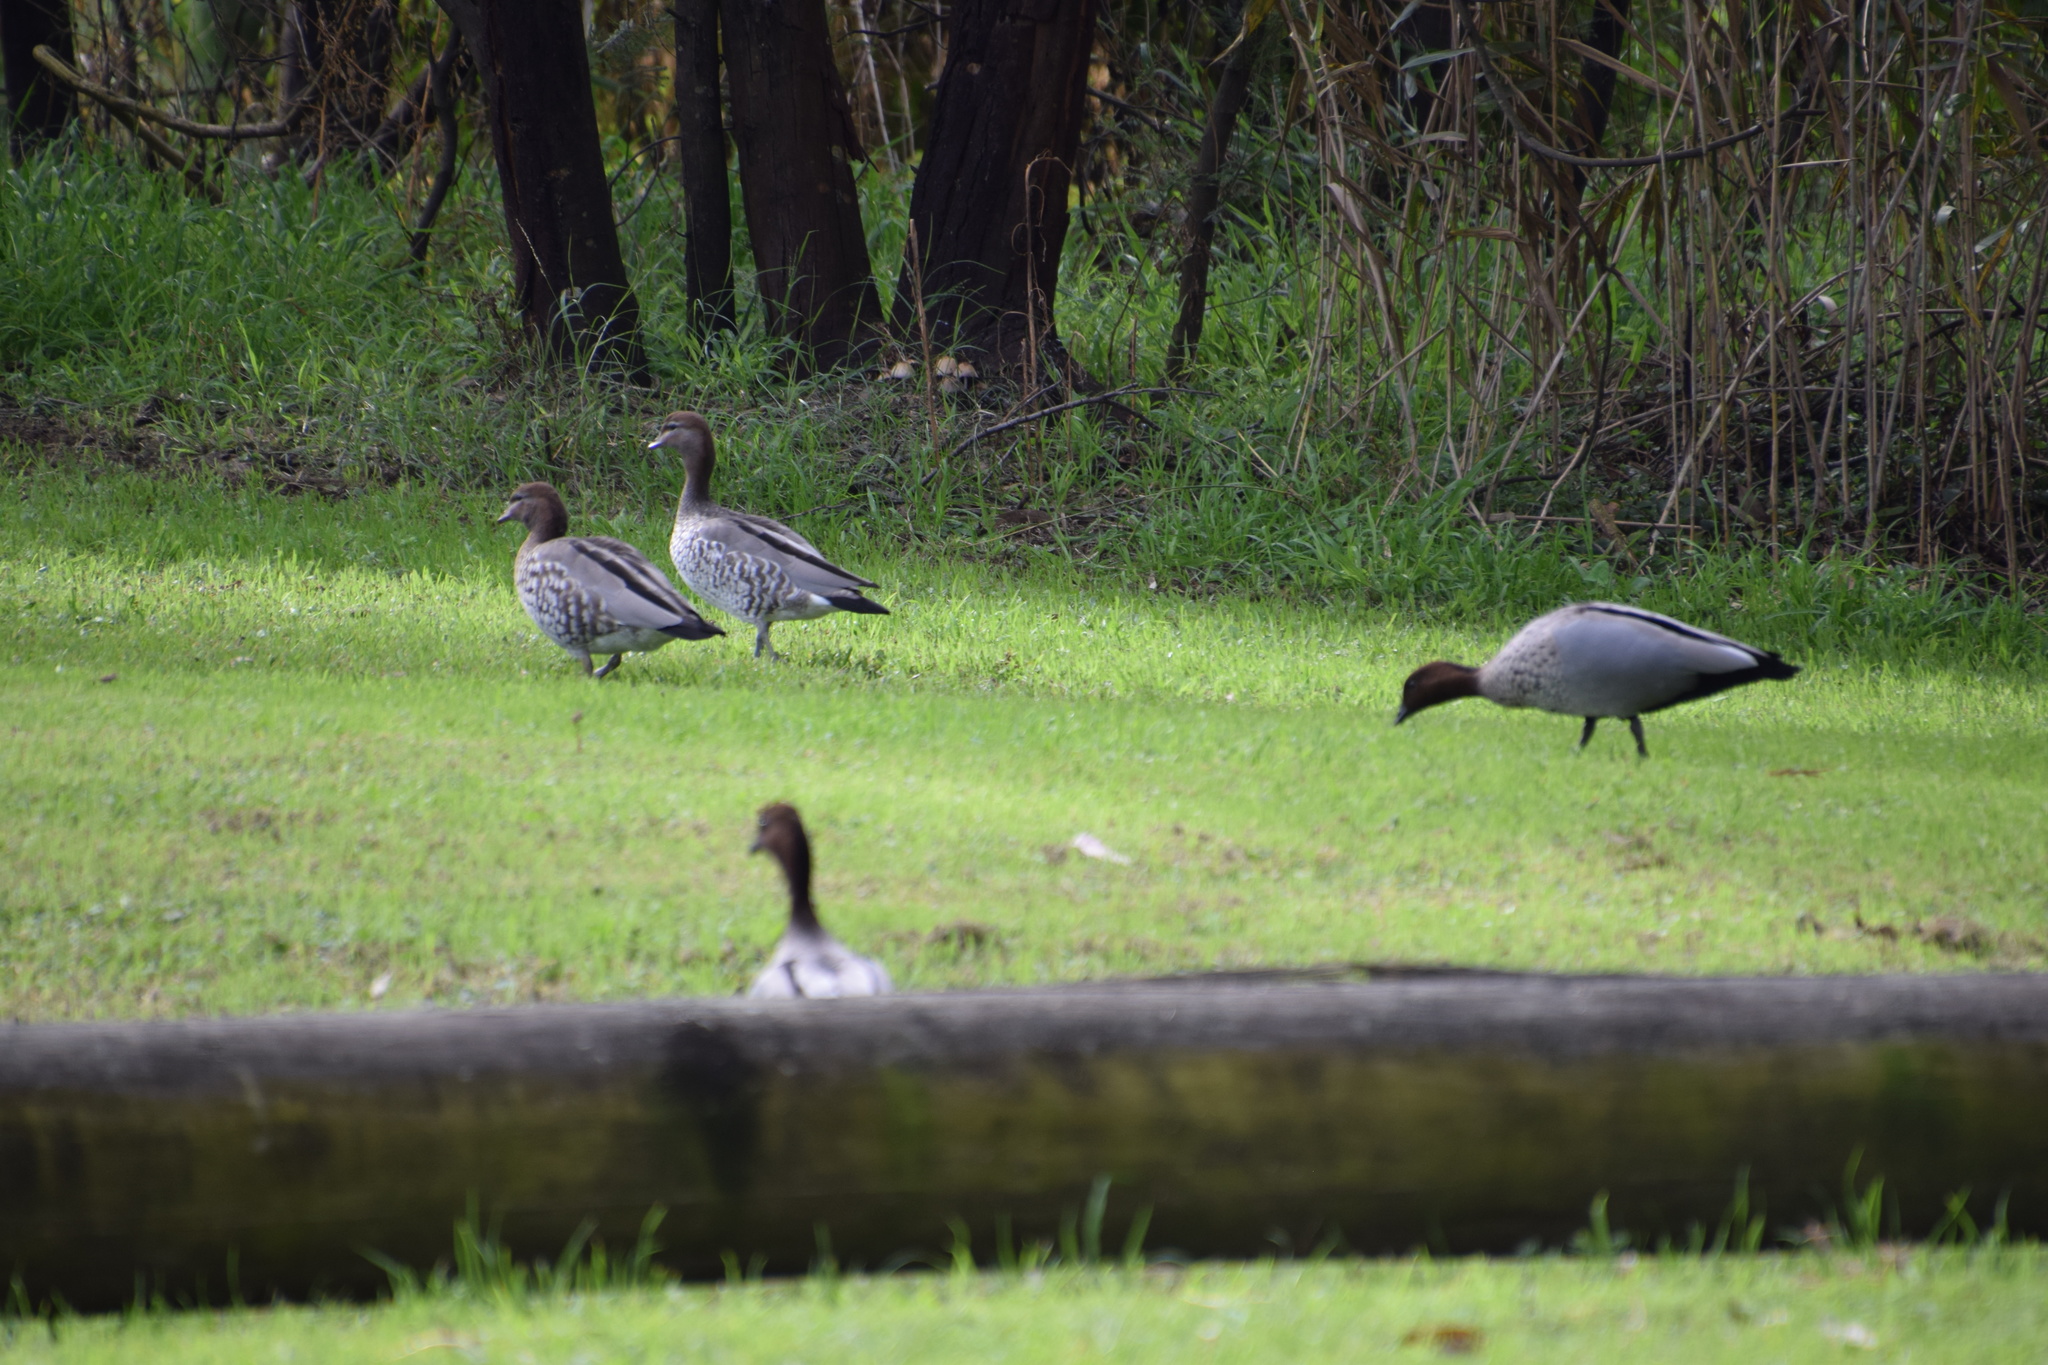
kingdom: Animalia
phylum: Chordata
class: Aves
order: Anseriformes
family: Anatidae
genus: Chenonetta
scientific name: Chenonetta jubata
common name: Maned duck
